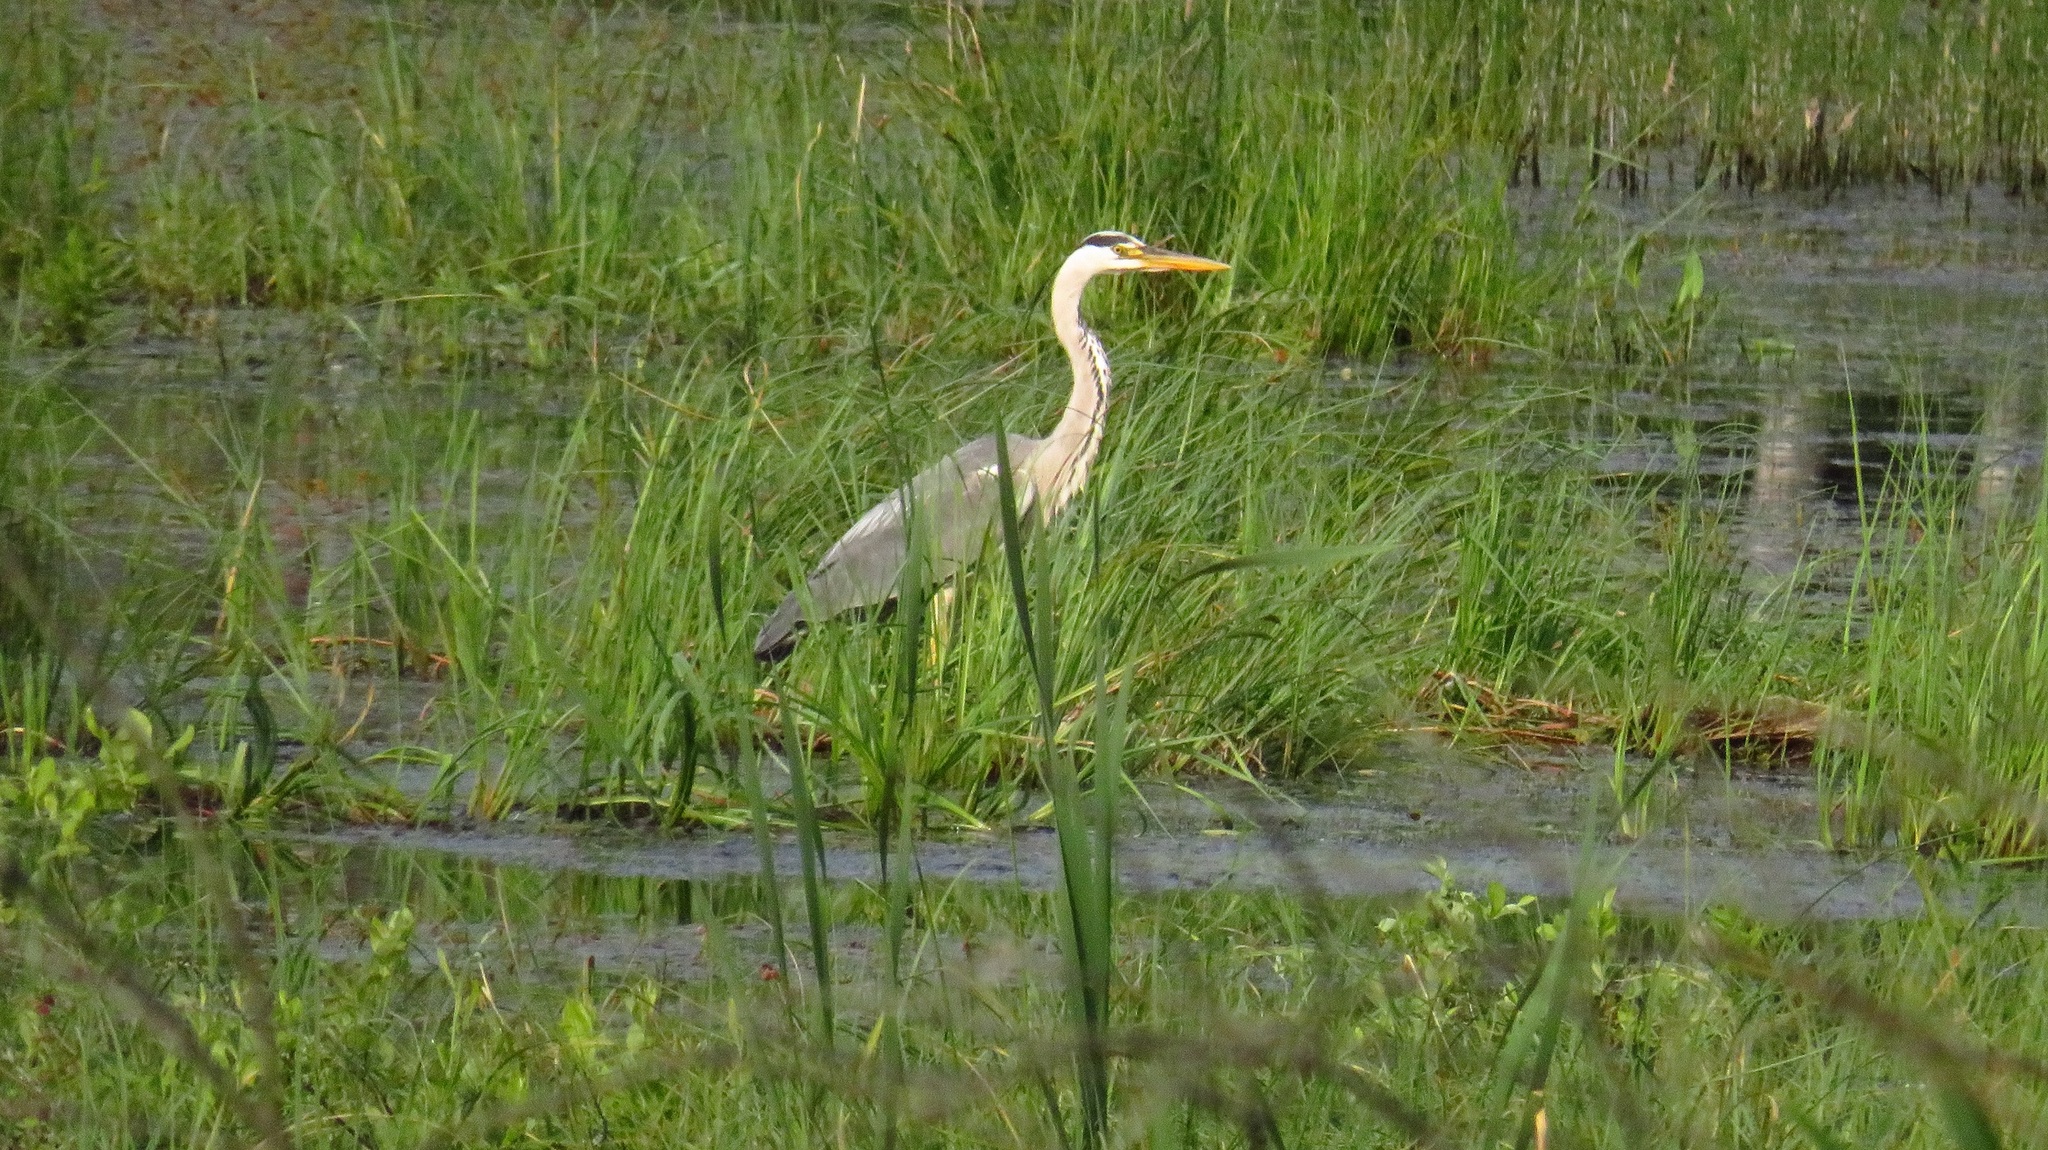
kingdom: Animalia
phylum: Chordata
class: Aves
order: Pelecaniformes
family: Ardeidae
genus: Ardea
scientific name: Ardea cinerea
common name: Grey heron
